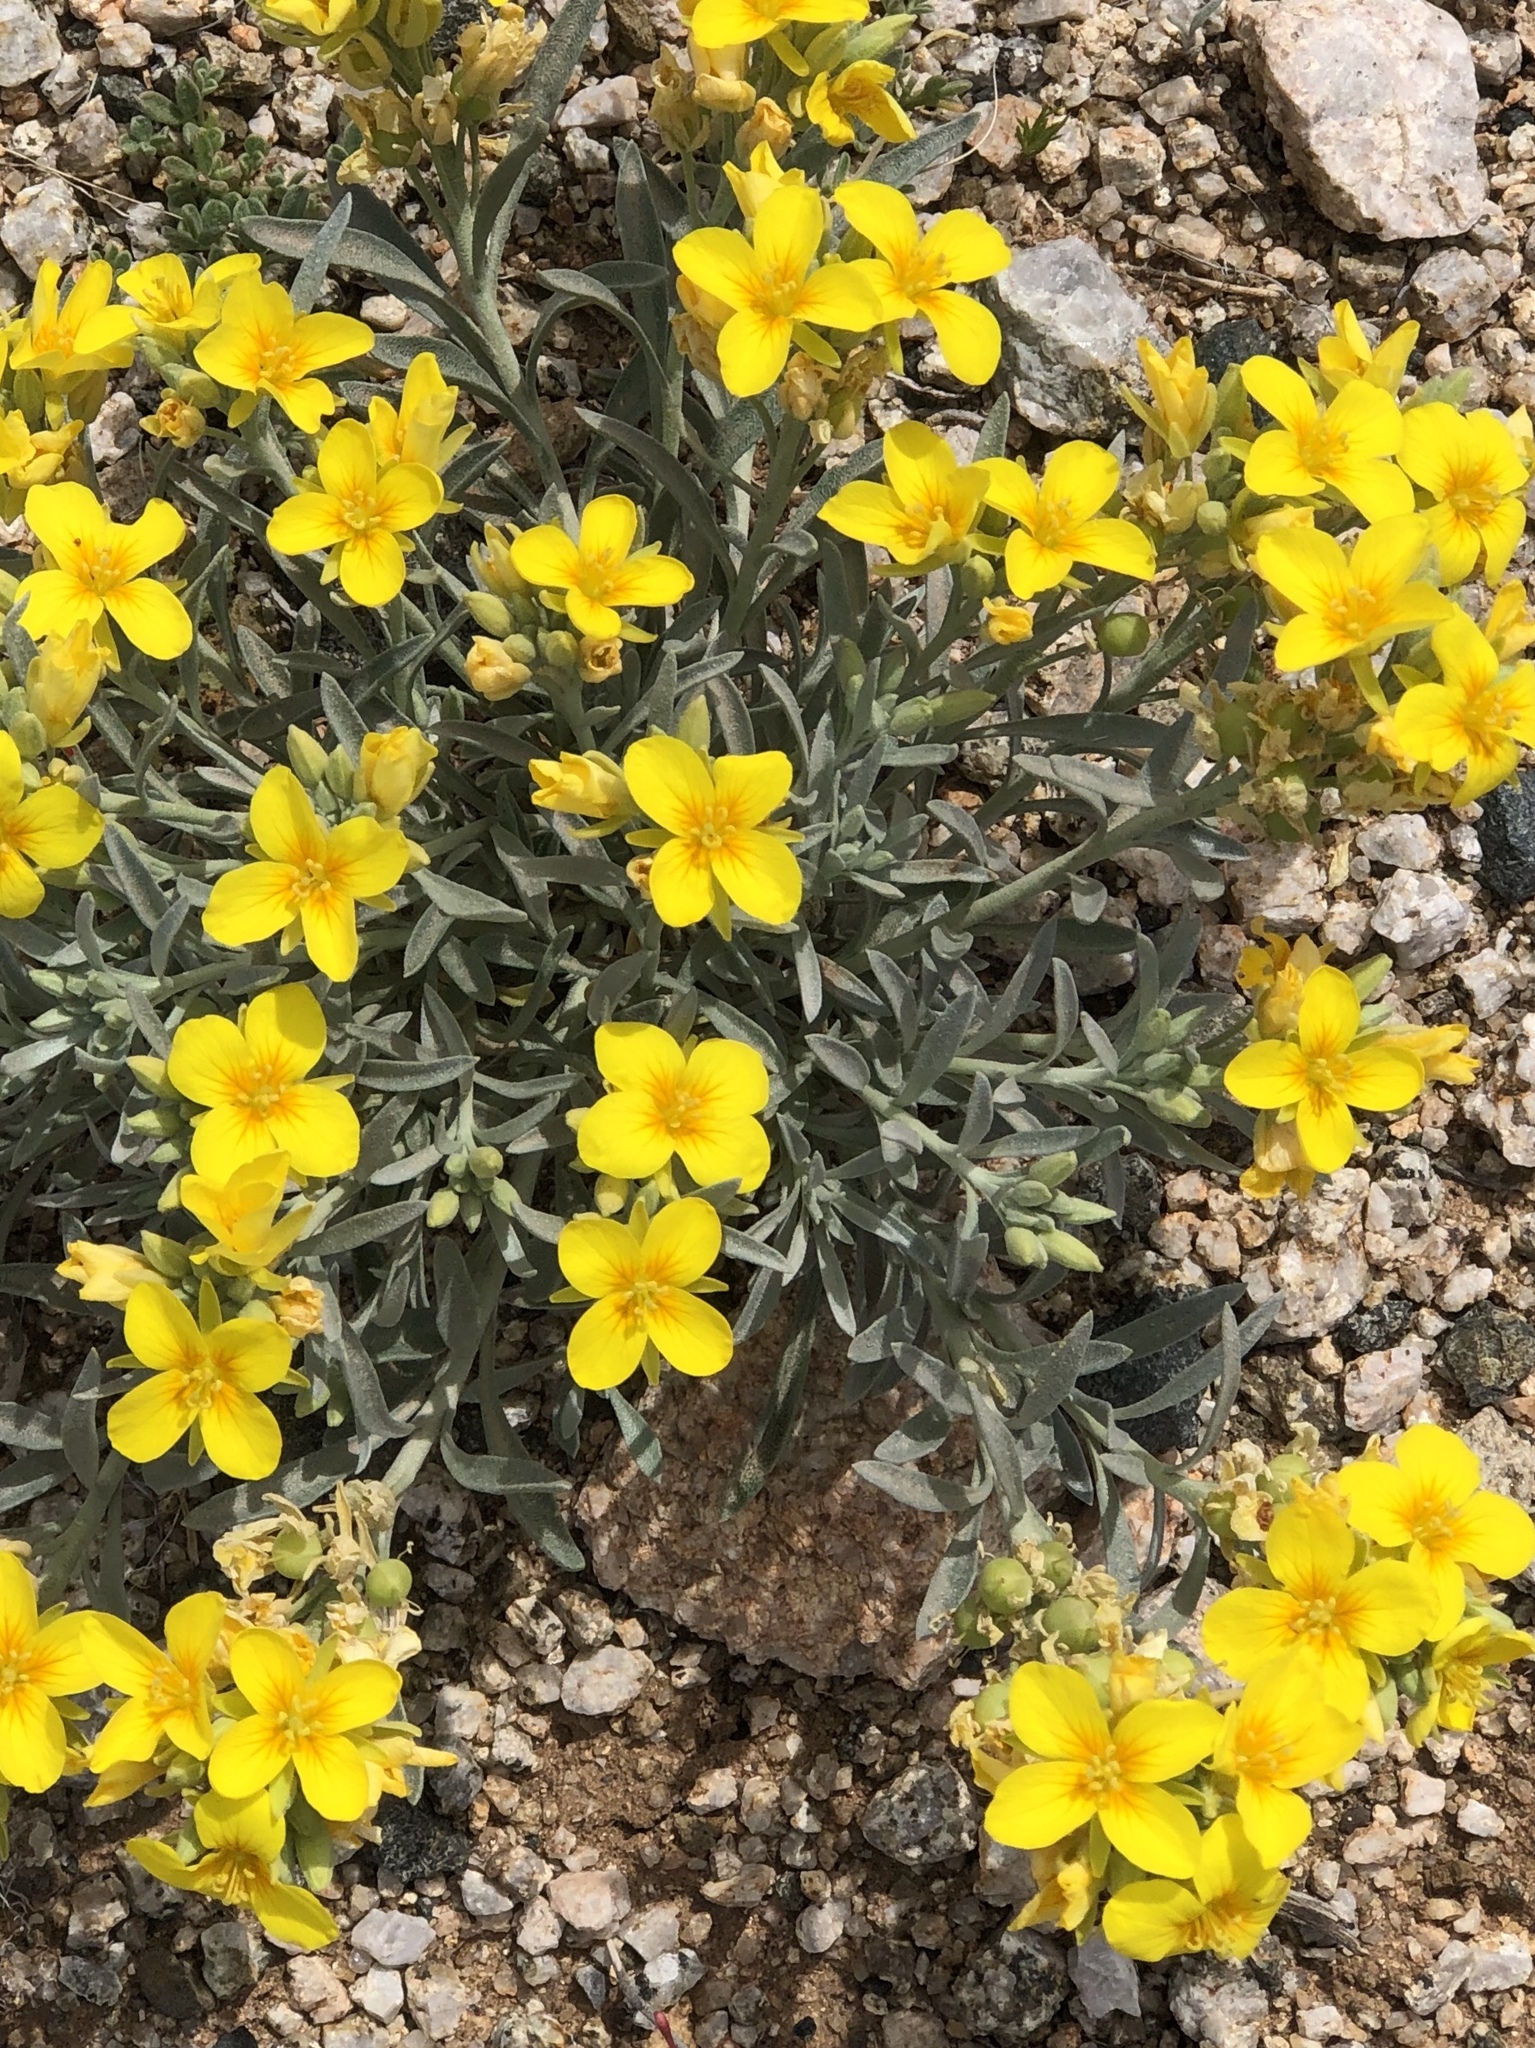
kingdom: Plantae
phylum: Tracheophyta
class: Magnoliopsida
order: Brassicales
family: Brassicaceae
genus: Physaria
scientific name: Physaria fendleri
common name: Fendler's bladderpod
